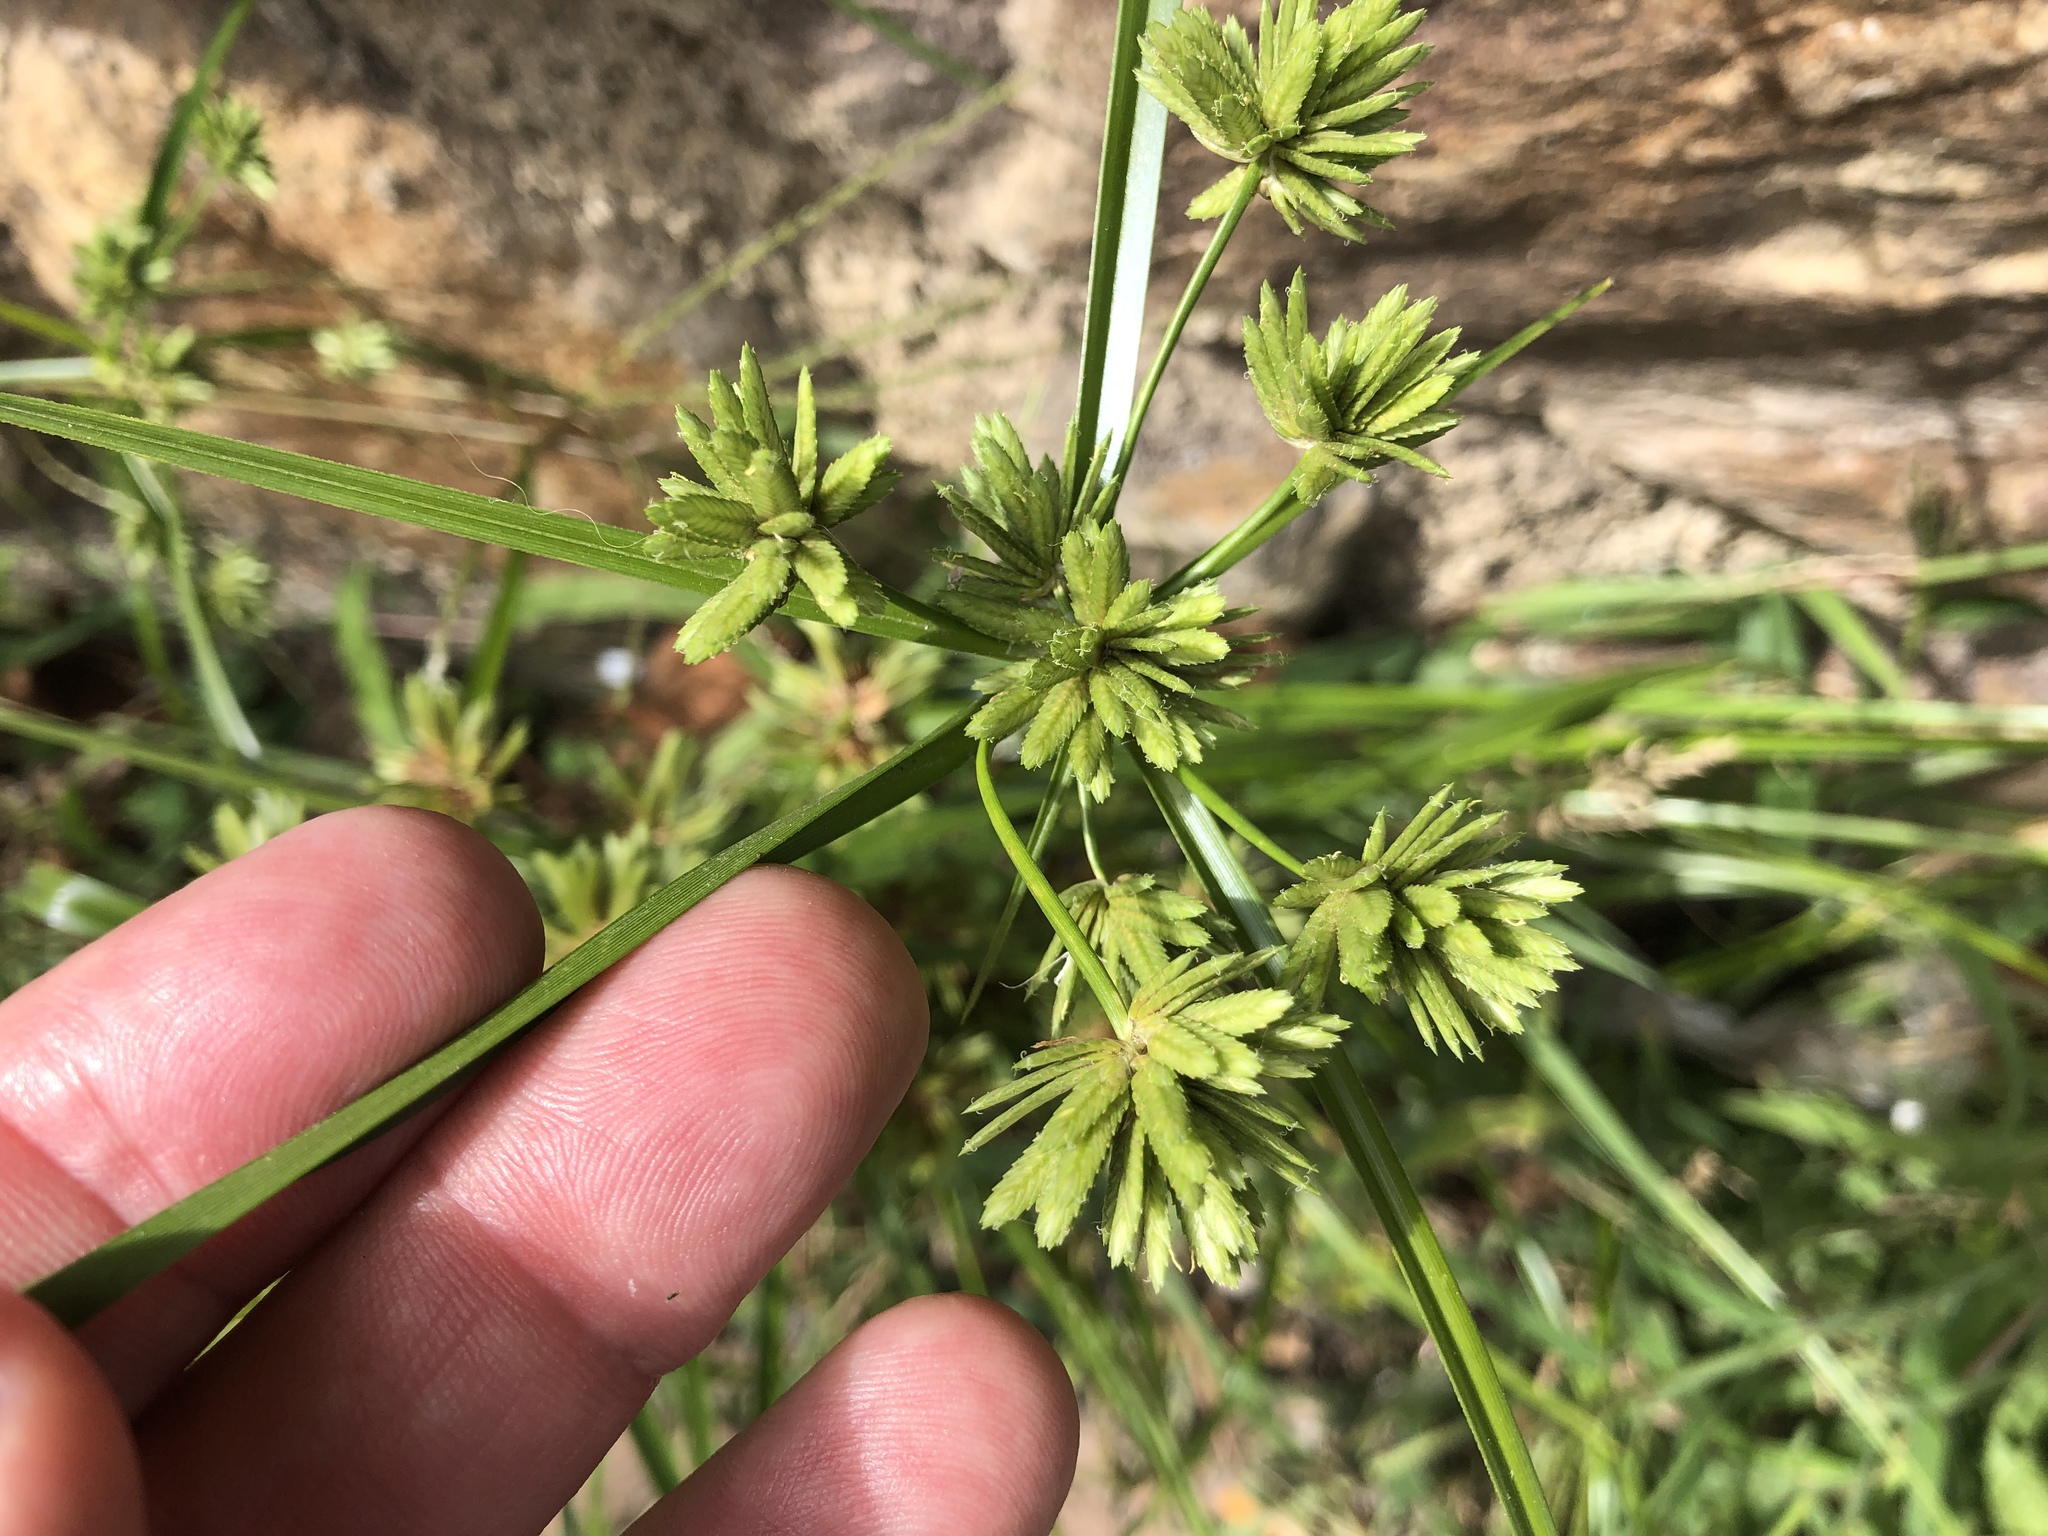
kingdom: Plantae
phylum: Tracheophyta
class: Liliopsida
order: Poales
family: Cyperaceae
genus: Cyperus
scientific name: Cyperus eragrostis
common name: Tall flatsedge
